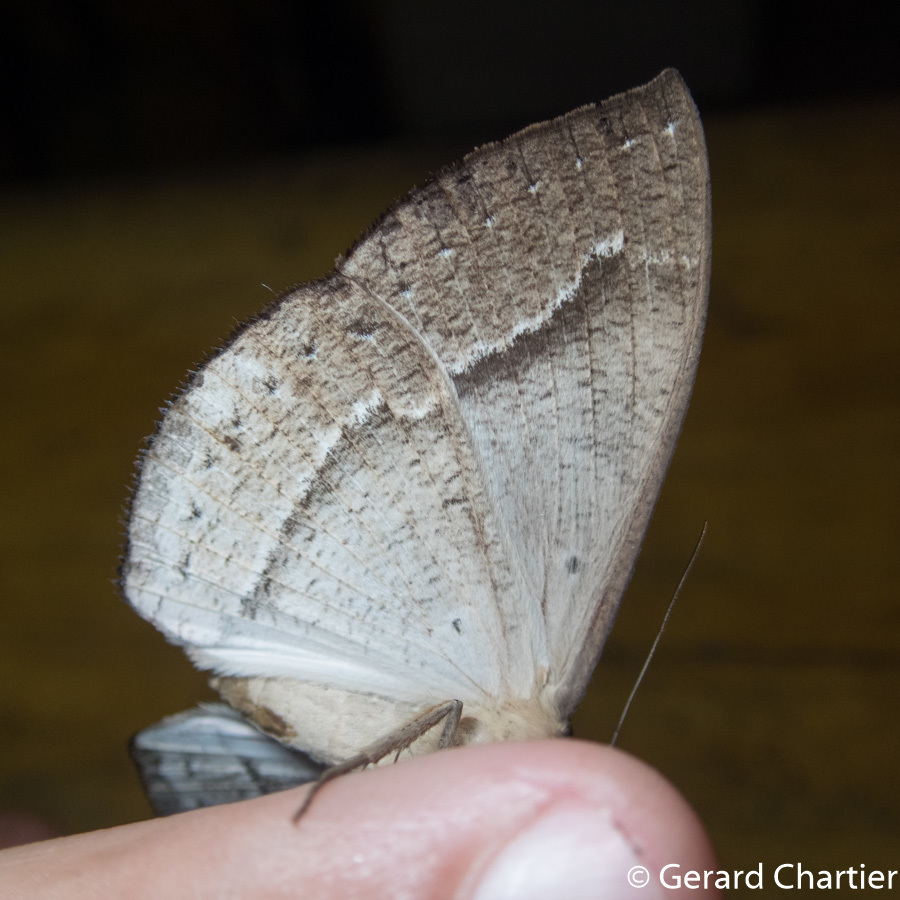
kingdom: Animalia
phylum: Arthropoda
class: Insecta
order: Lepidoptera
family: Erebidae
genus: Lygniodes
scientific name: Lygniodes hypoleuca
